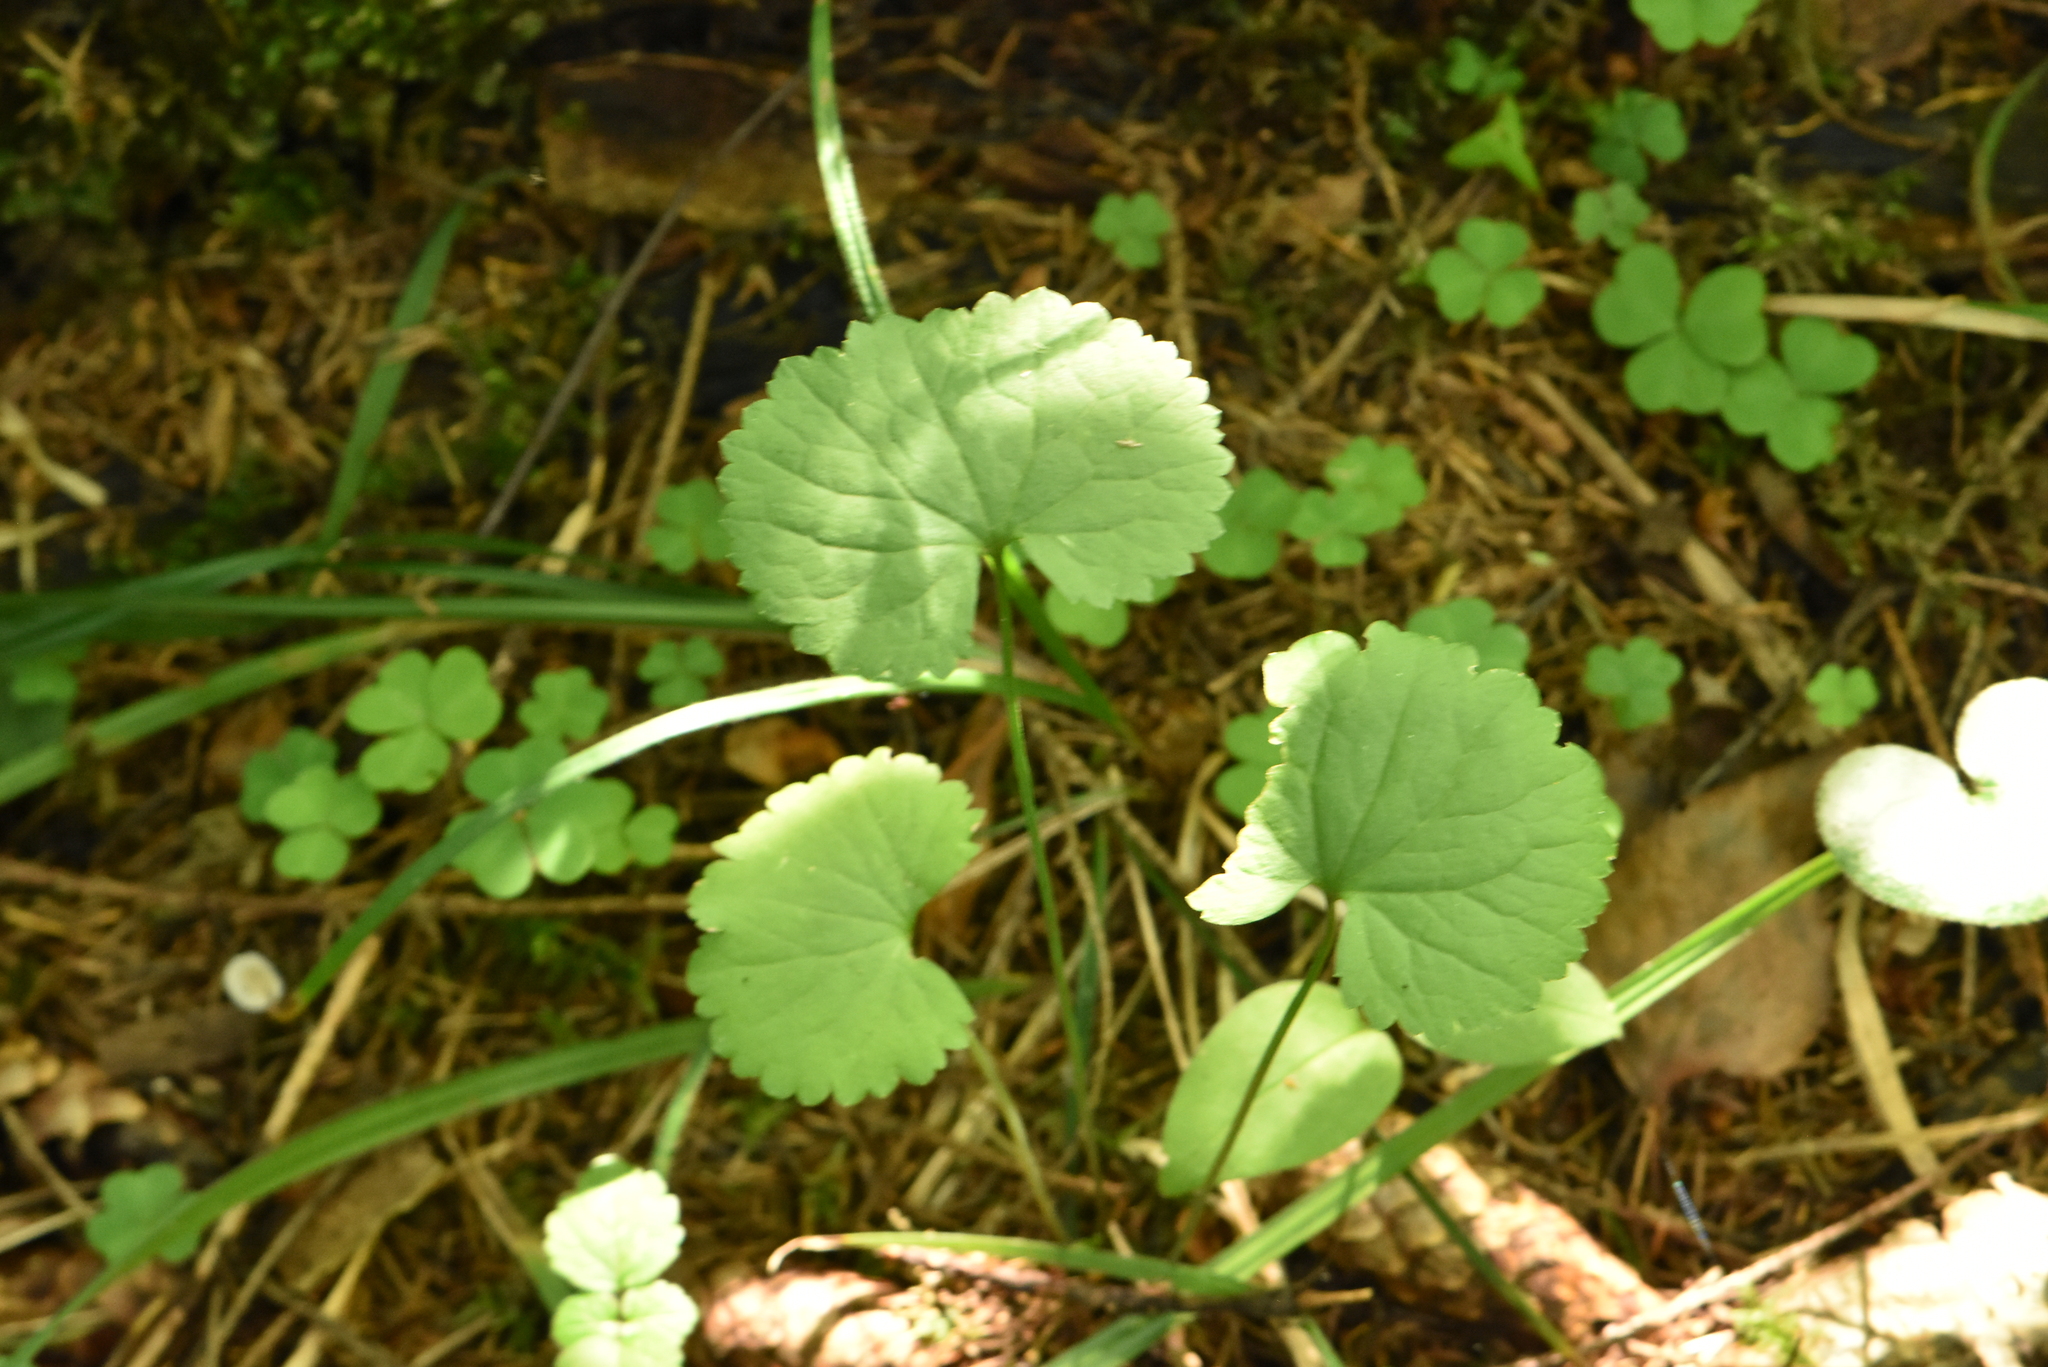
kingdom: Plantae
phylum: Tracheophyta
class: Magnoliopsida
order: Ranunculales
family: Ranunculaceae
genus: Ranunculus
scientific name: Ranunculus cassubicus
